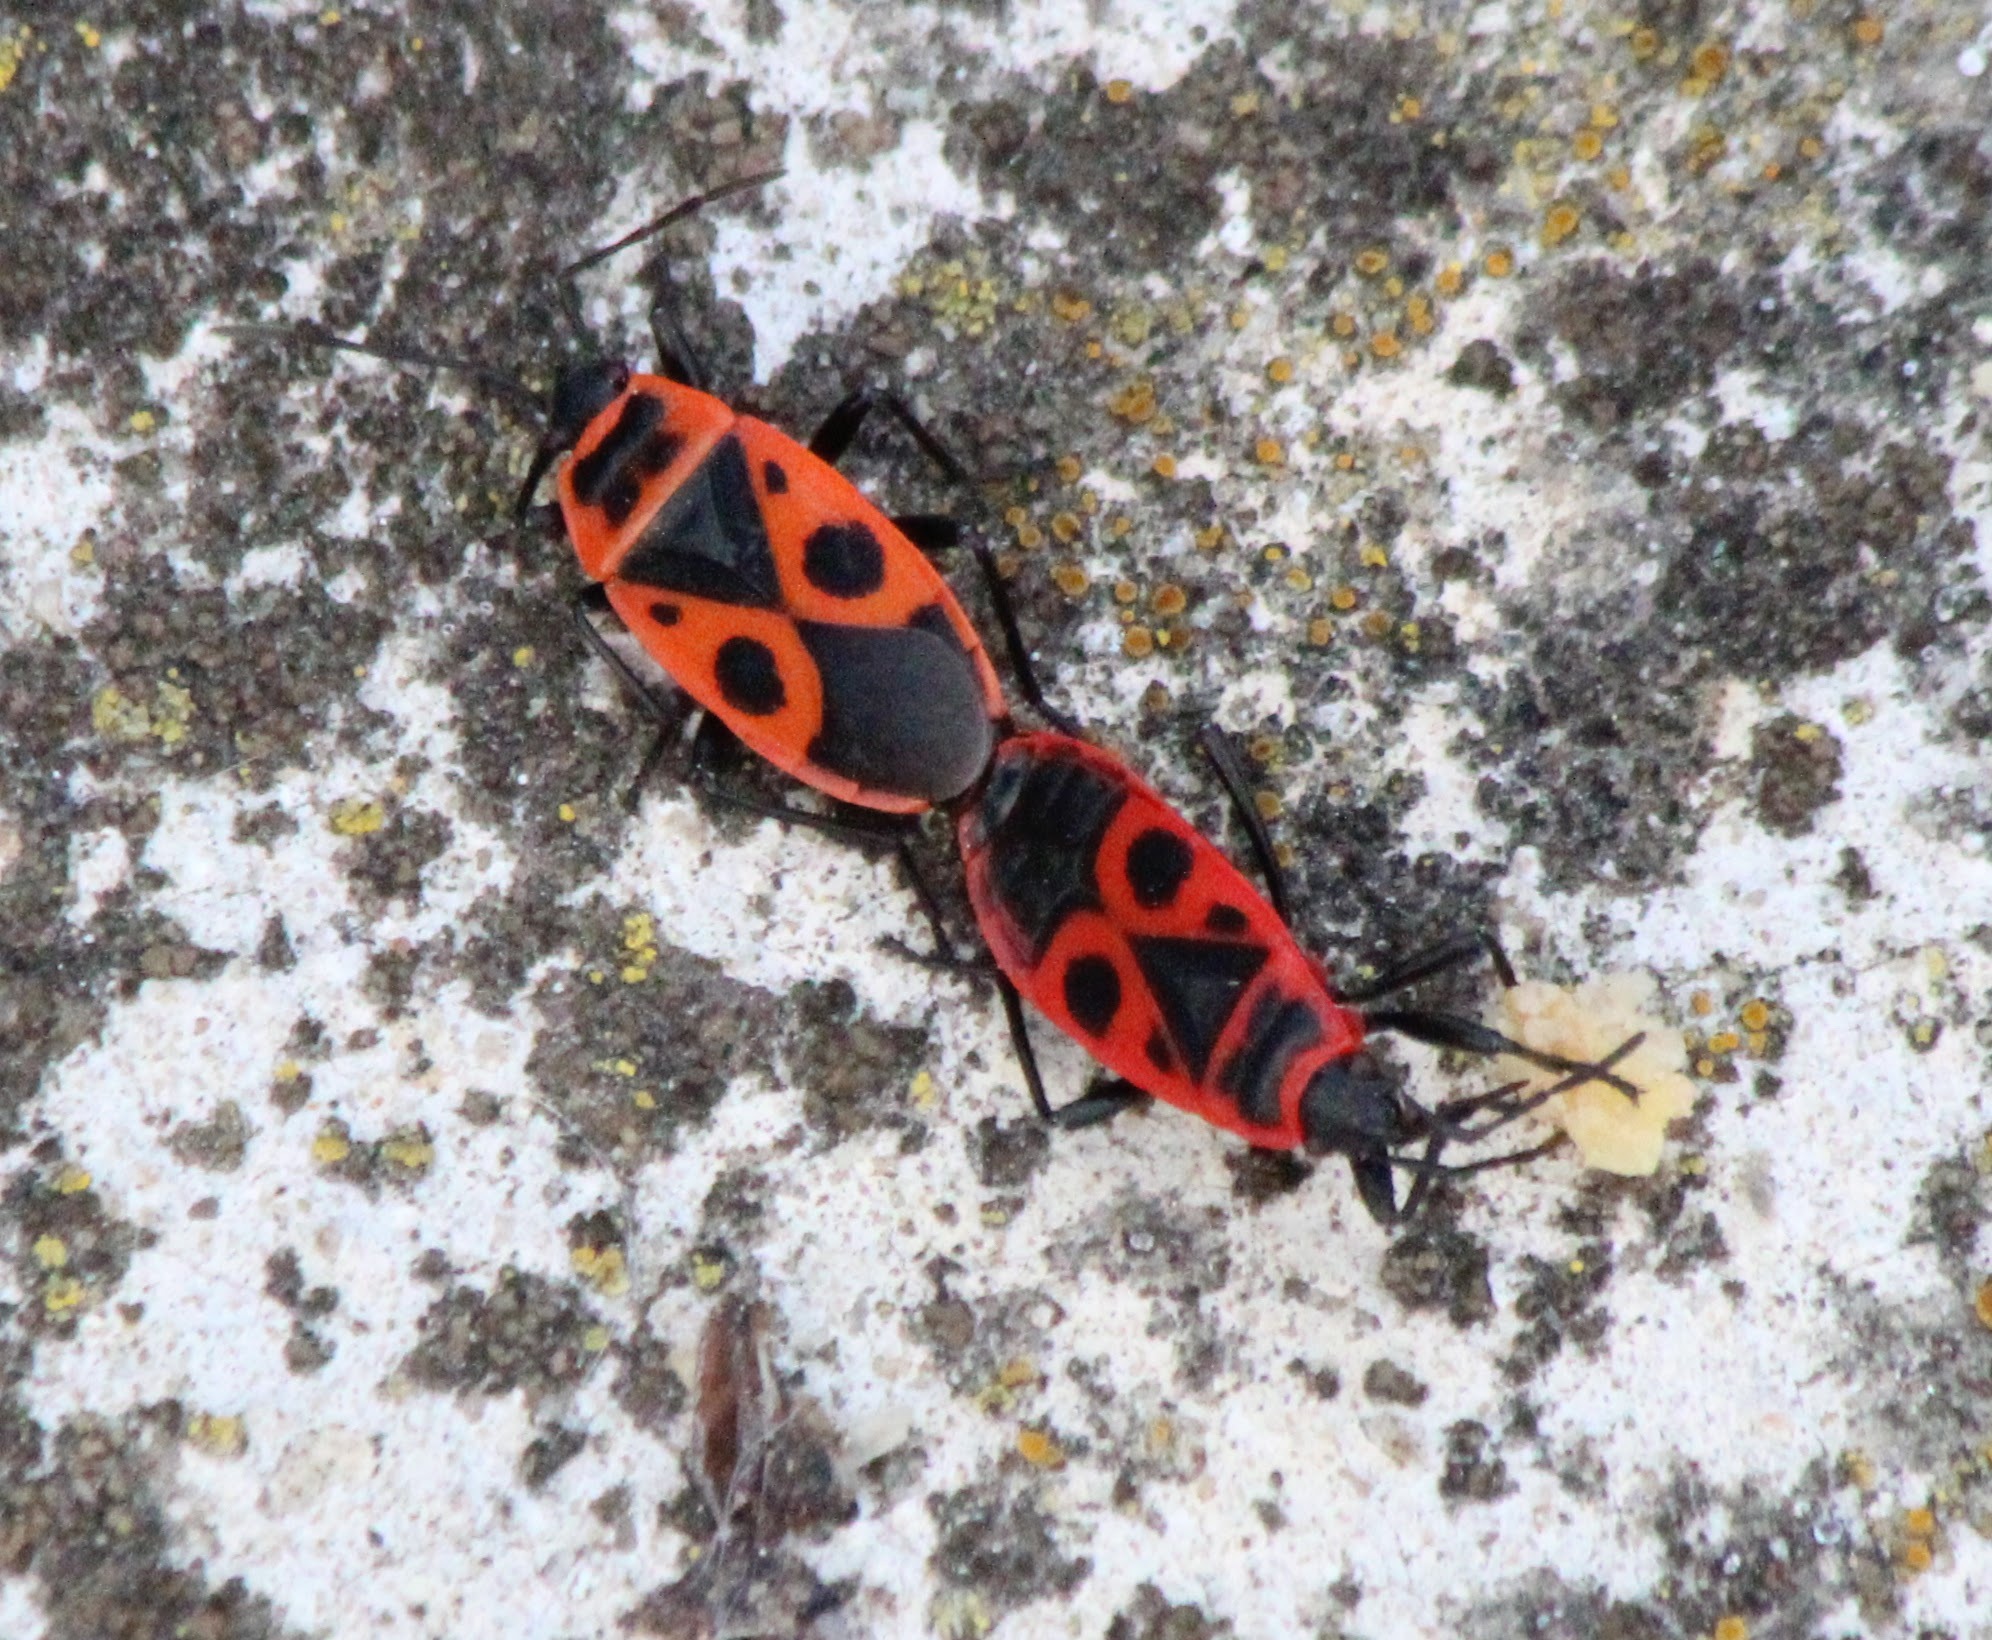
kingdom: Animalia
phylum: Arthropoda
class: Insecta
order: Hemiptera
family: Pyrrhocoridae
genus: Pyrrhocoris
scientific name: Pyrrhocoris apterus
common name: Firebug
